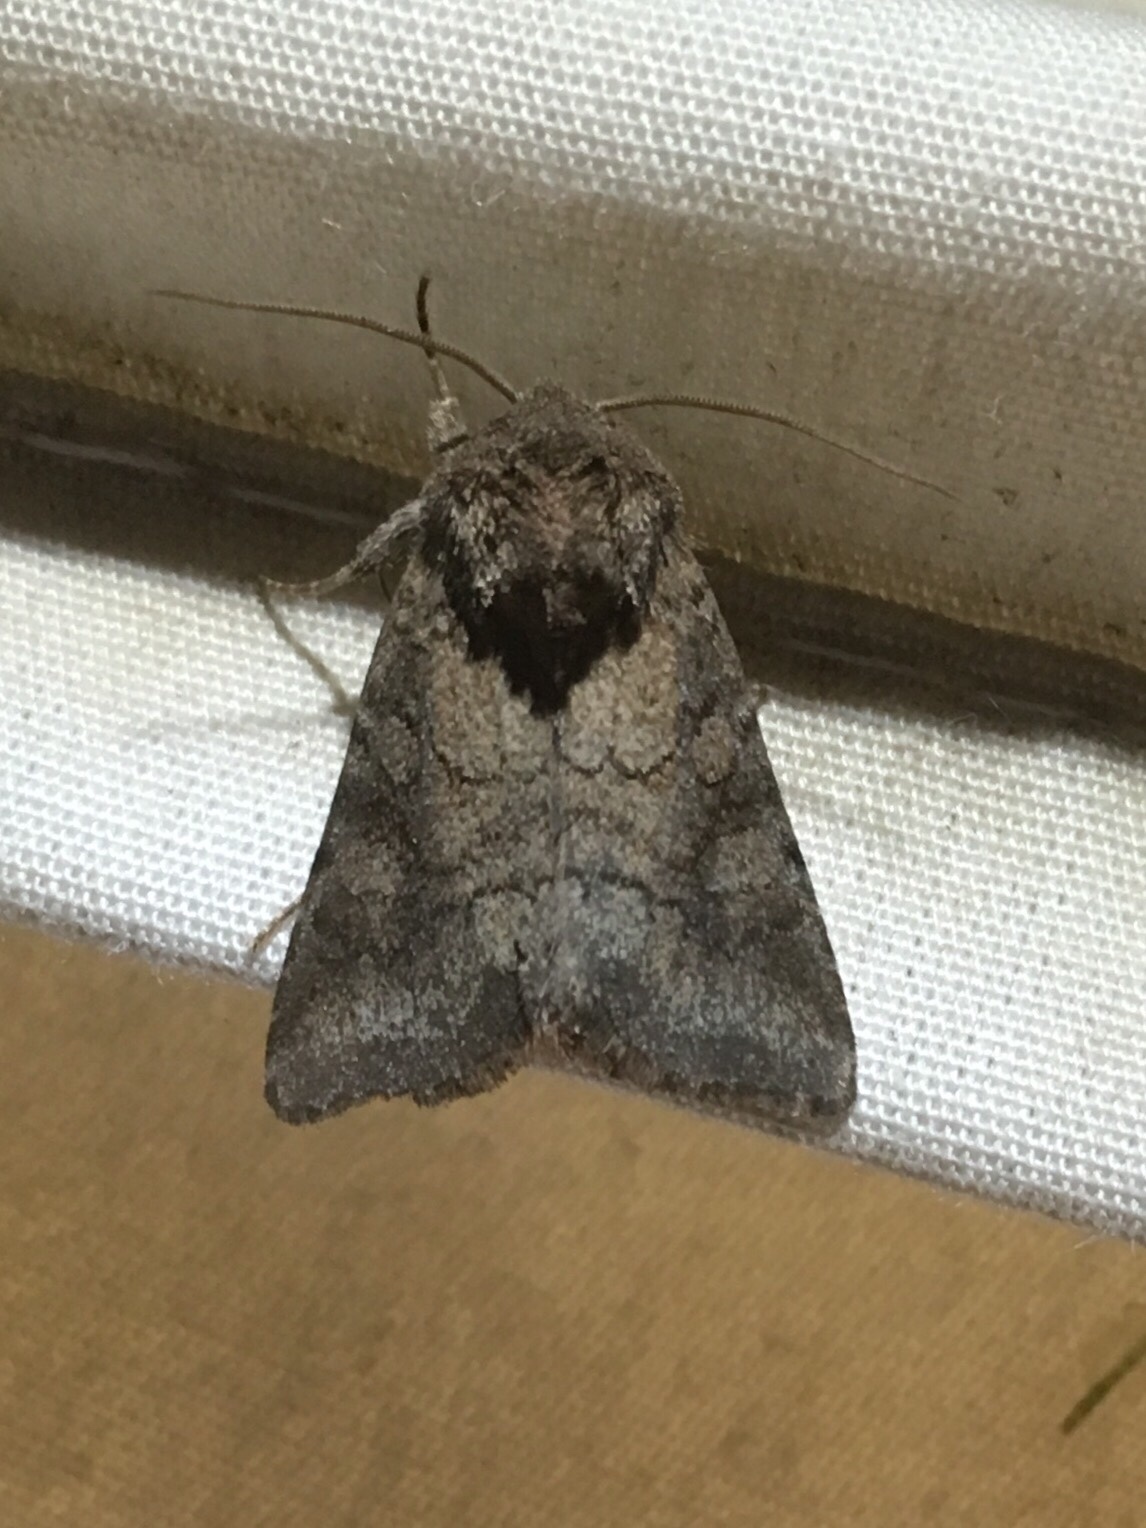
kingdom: Animalia
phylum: Arthropoda
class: Insecta
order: Lepidoptera
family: Noctuidae
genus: Lacinipolia
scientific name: Lacinipolia meditata
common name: Thinker moth
